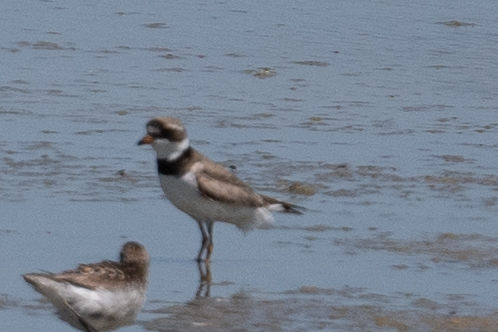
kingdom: Animalia
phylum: Chordata
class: Aves
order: Charadriiformes
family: Charadriidae
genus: Charadrius
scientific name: Charadrius semipalmatus
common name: Semipalmated plover
